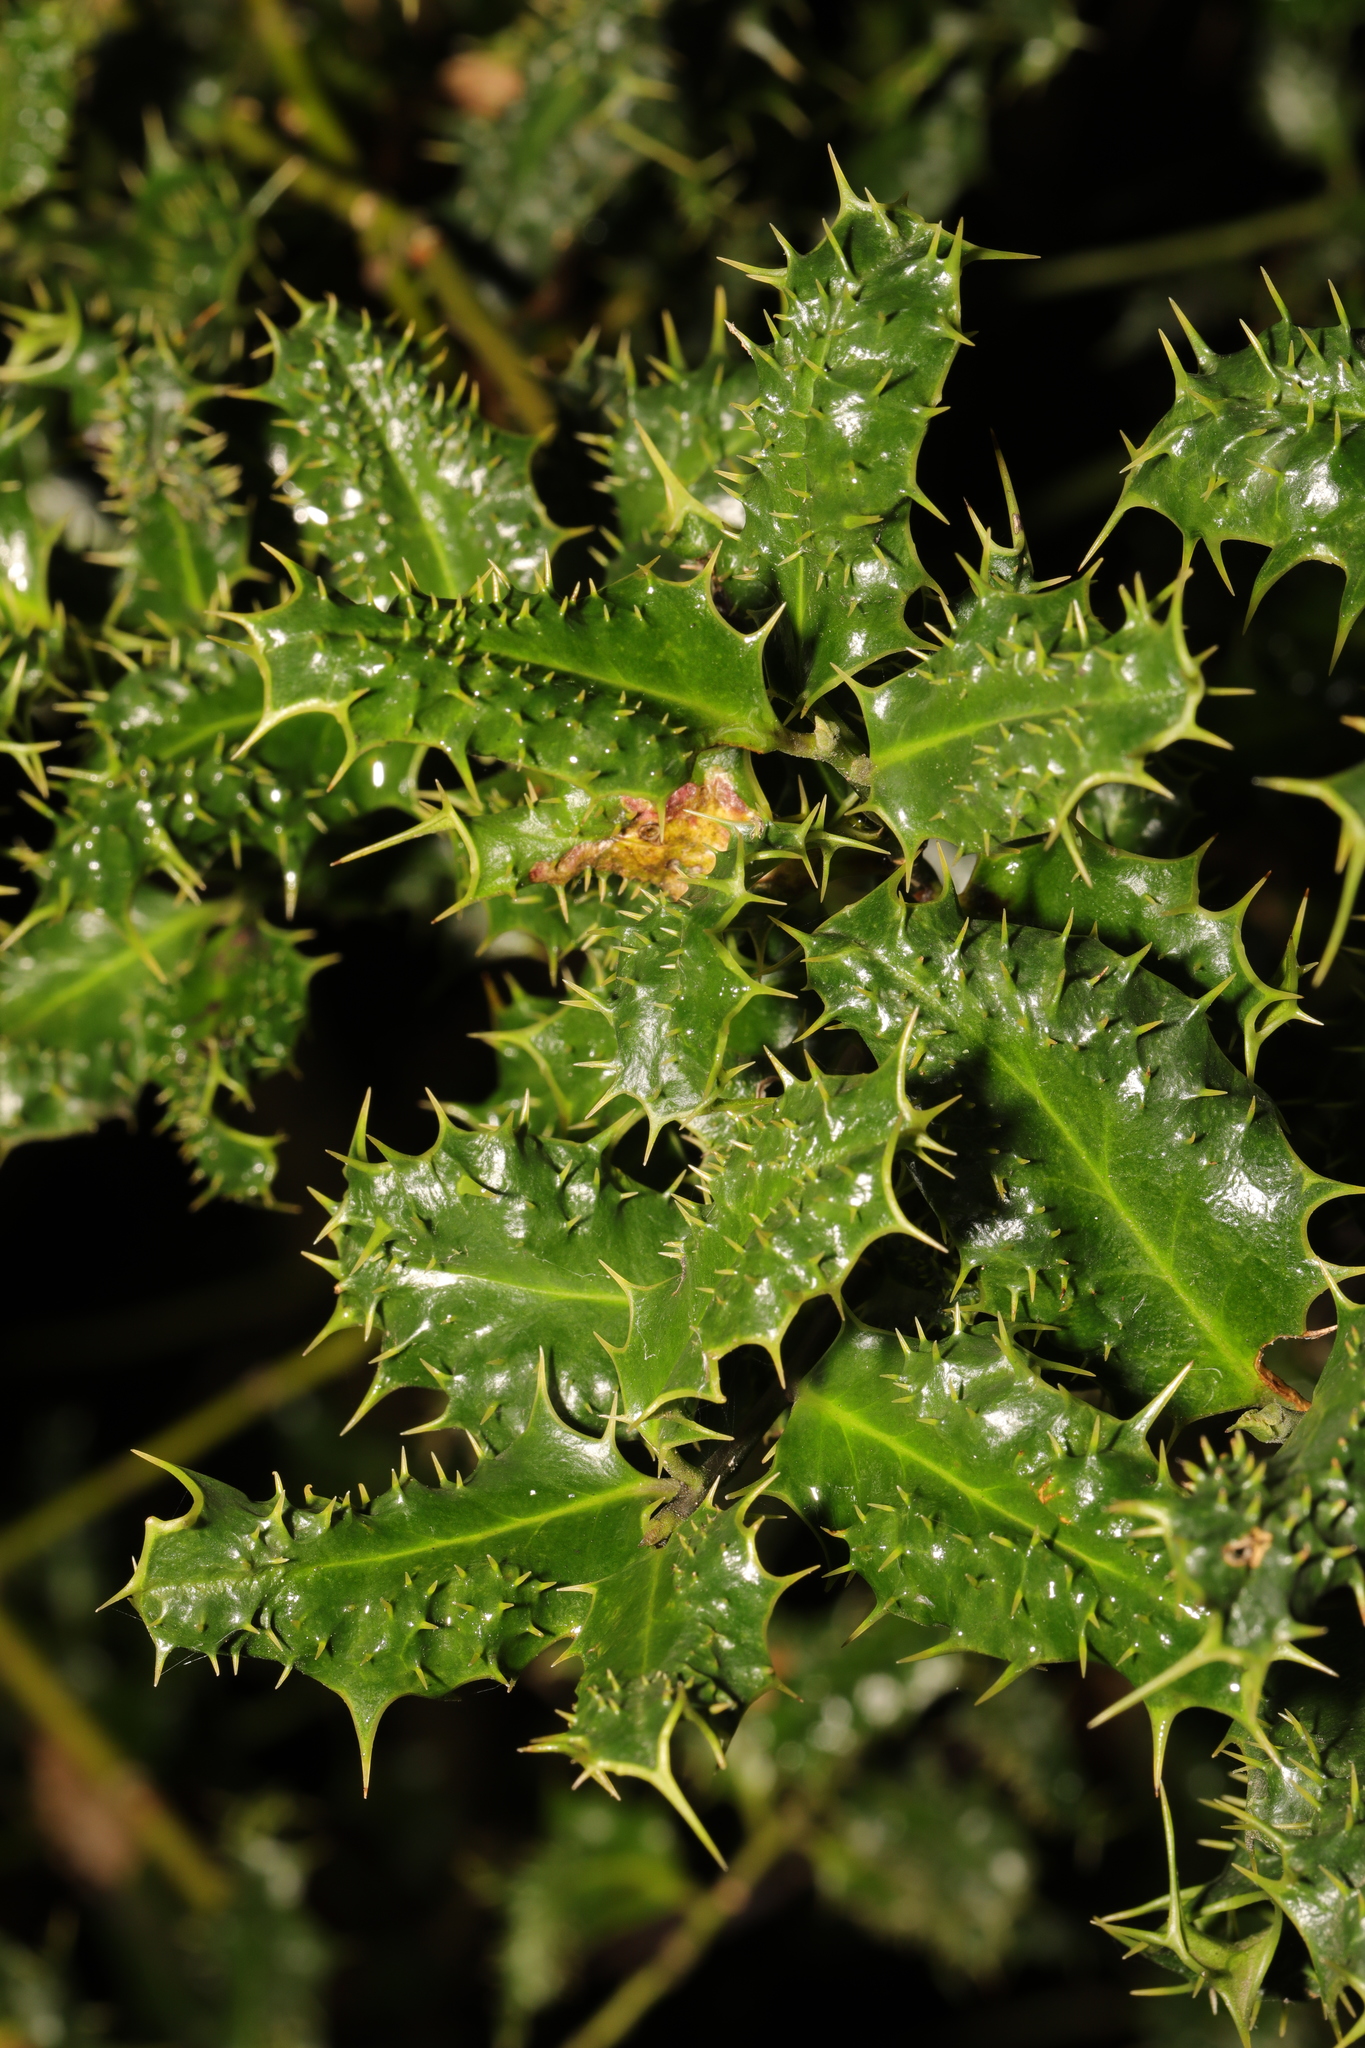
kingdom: Plantae
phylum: Tracheophyta
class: Magnoliopsida
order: Aquifoliales
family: Aquifoliaceae
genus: Ilex
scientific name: Ilex aquifolium
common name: English holly
